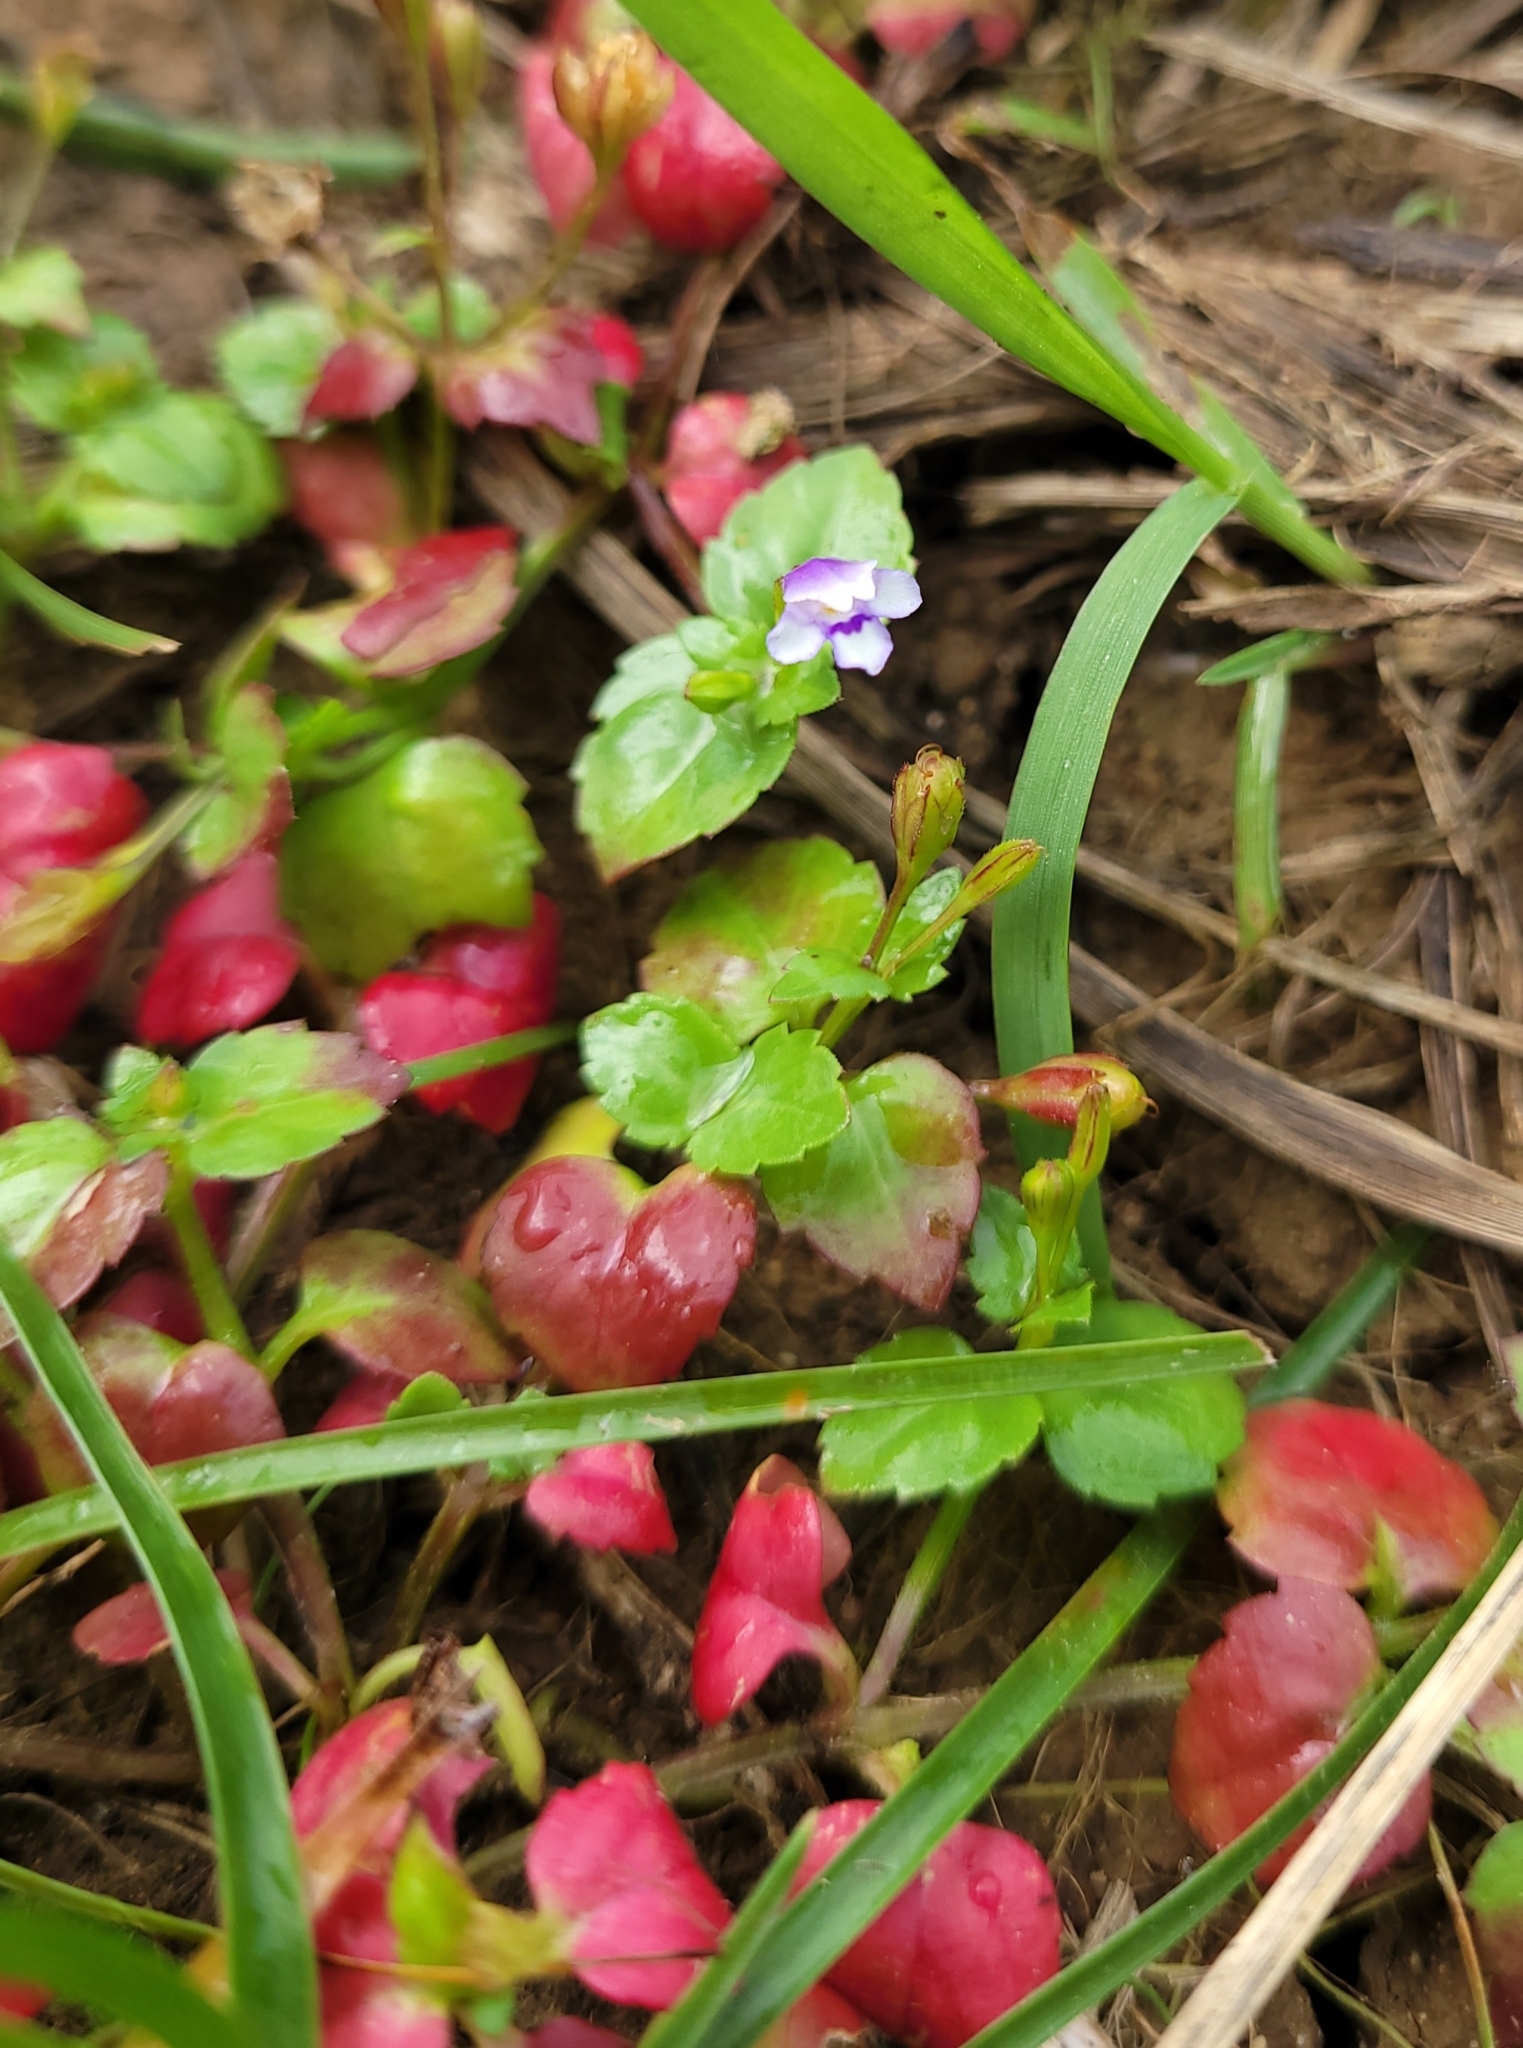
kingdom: Plantae
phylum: Tracheophyta
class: Magnoliopsida
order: Lamiales
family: Linderniaceae
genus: Torenia
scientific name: Torenia crustacea
